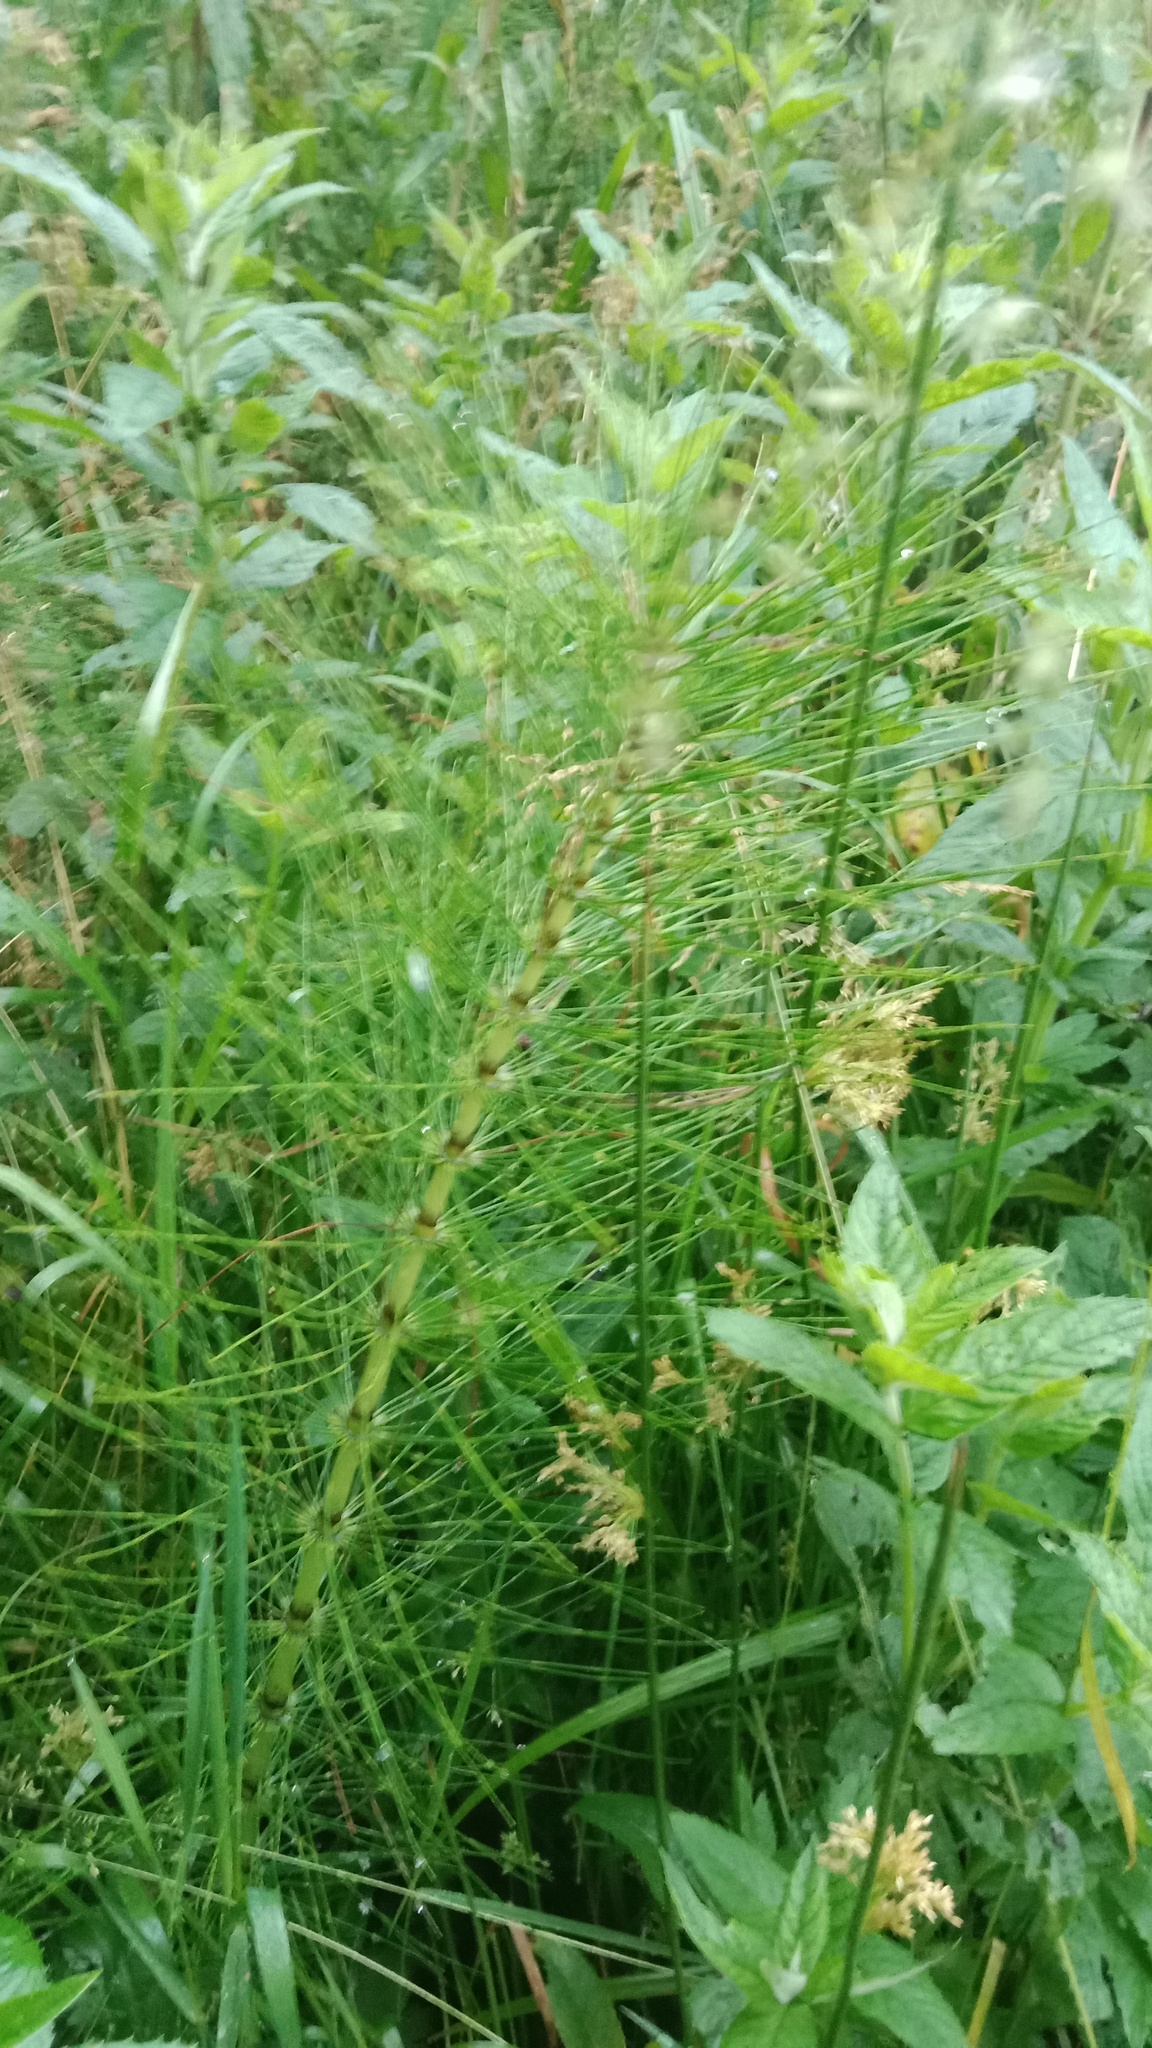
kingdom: Plantae
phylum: Tracheophyta
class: Polypodiopsida
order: Equisetales
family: Equisetaceae
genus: Equisetum
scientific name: Equisetum telmateia
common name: Great horsetail
